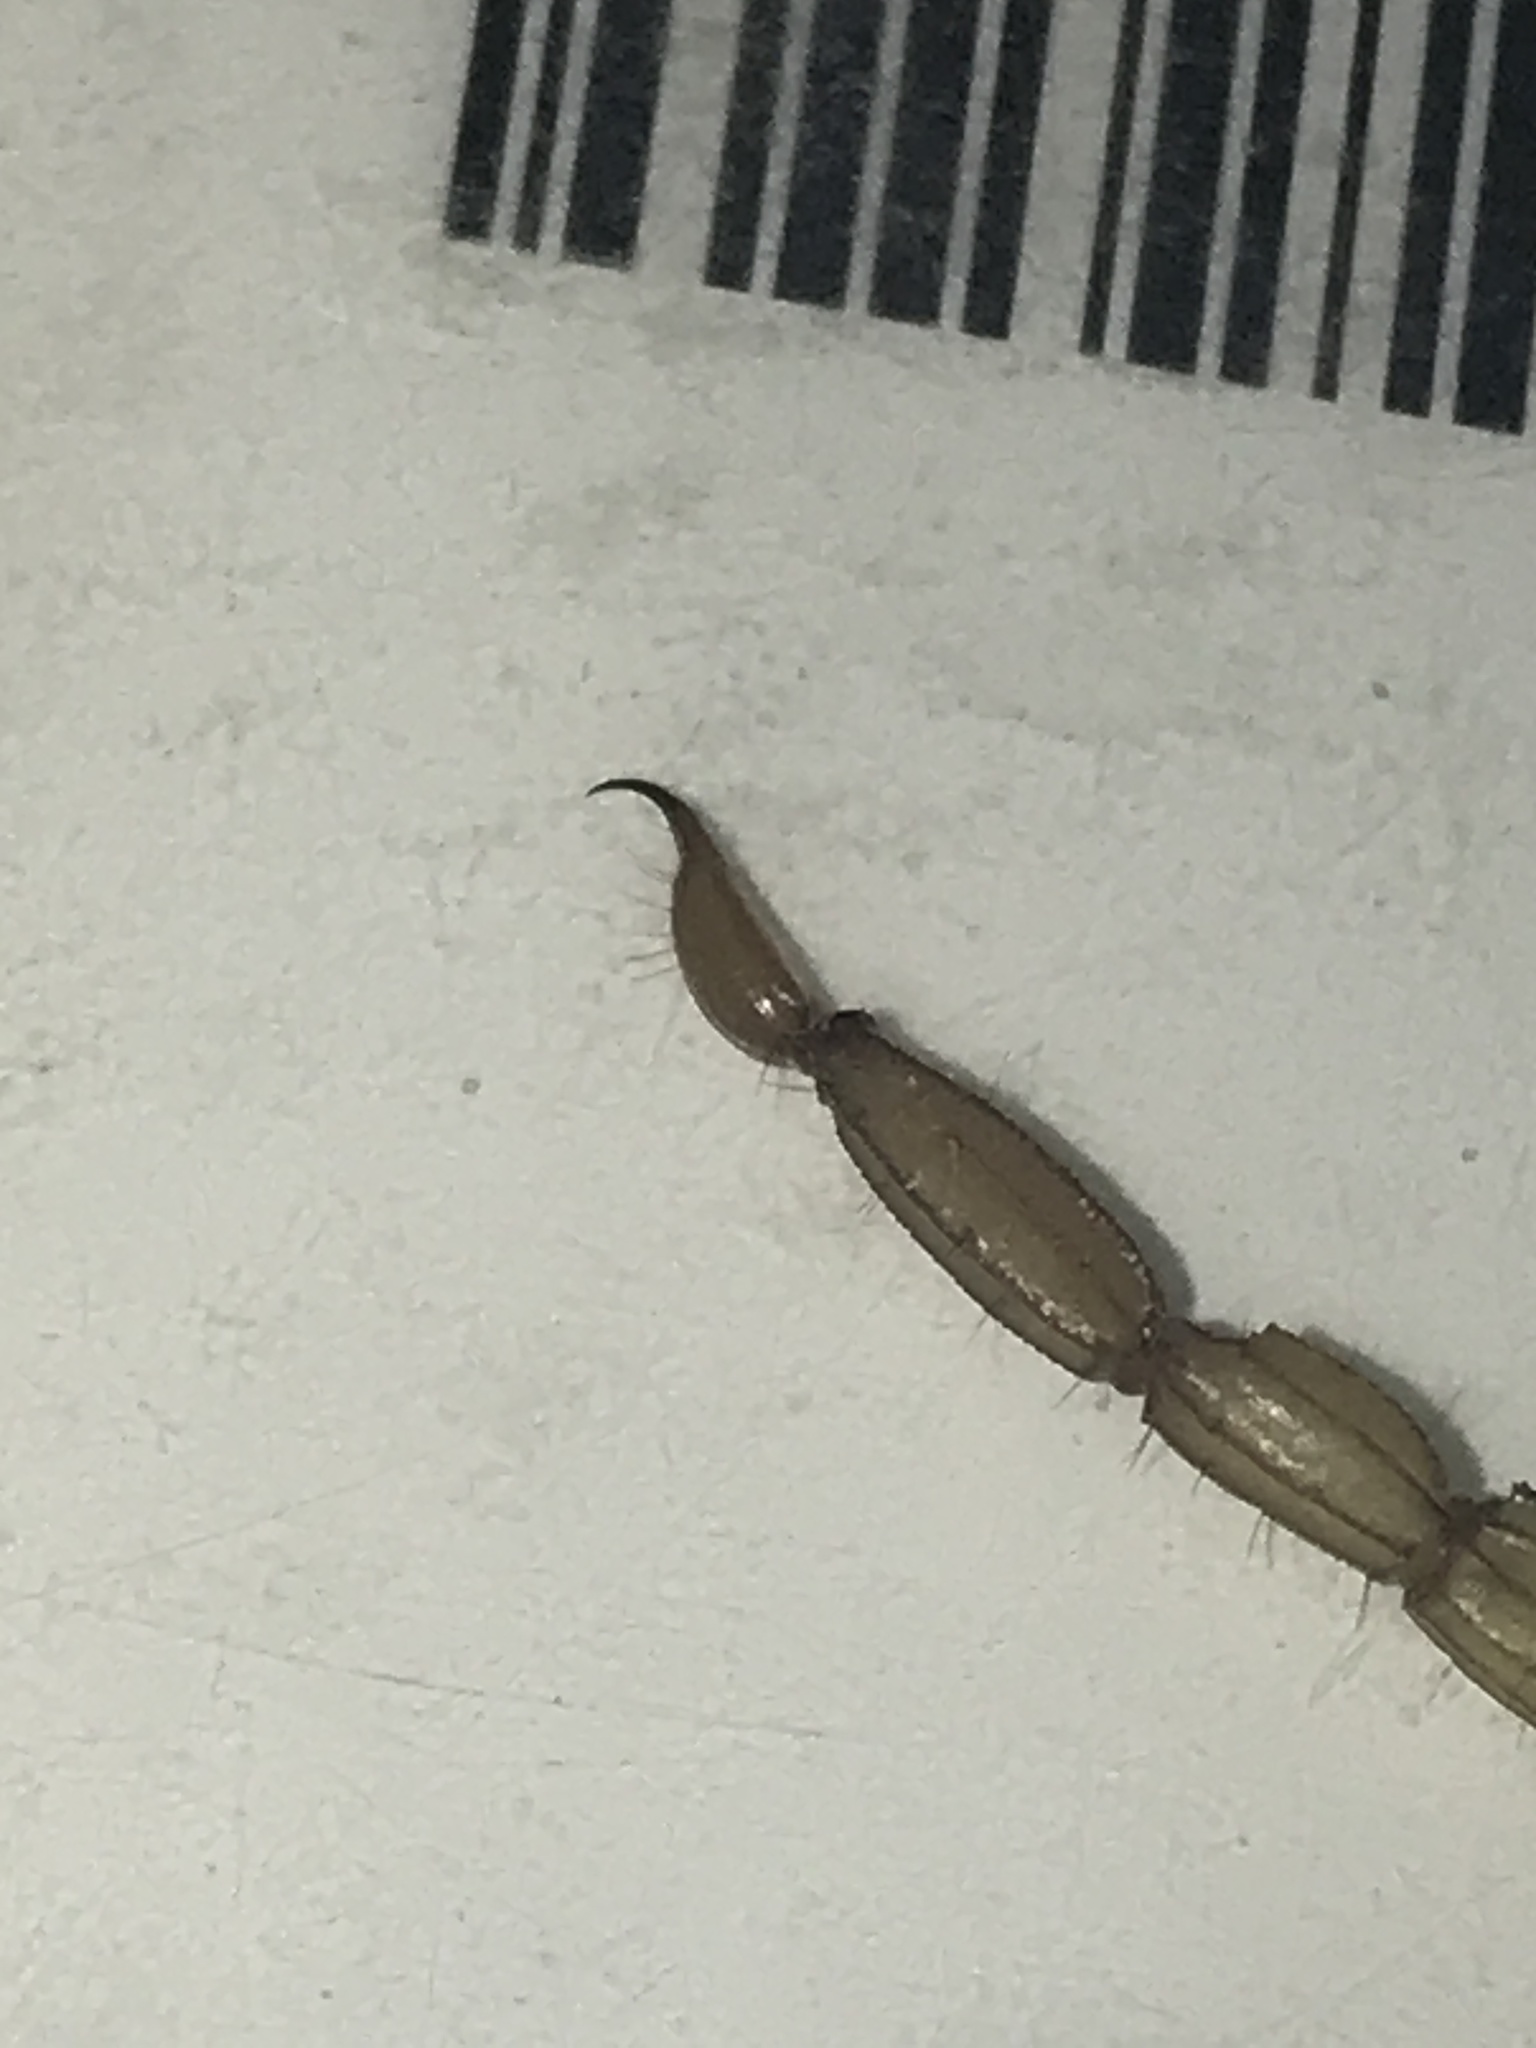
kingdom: Animalia
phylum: Arthropoda
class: Arachnida
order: Scorpiones
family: Vaejovidae
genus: Serradigitus
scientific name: Serradigitus wupatkiensis
